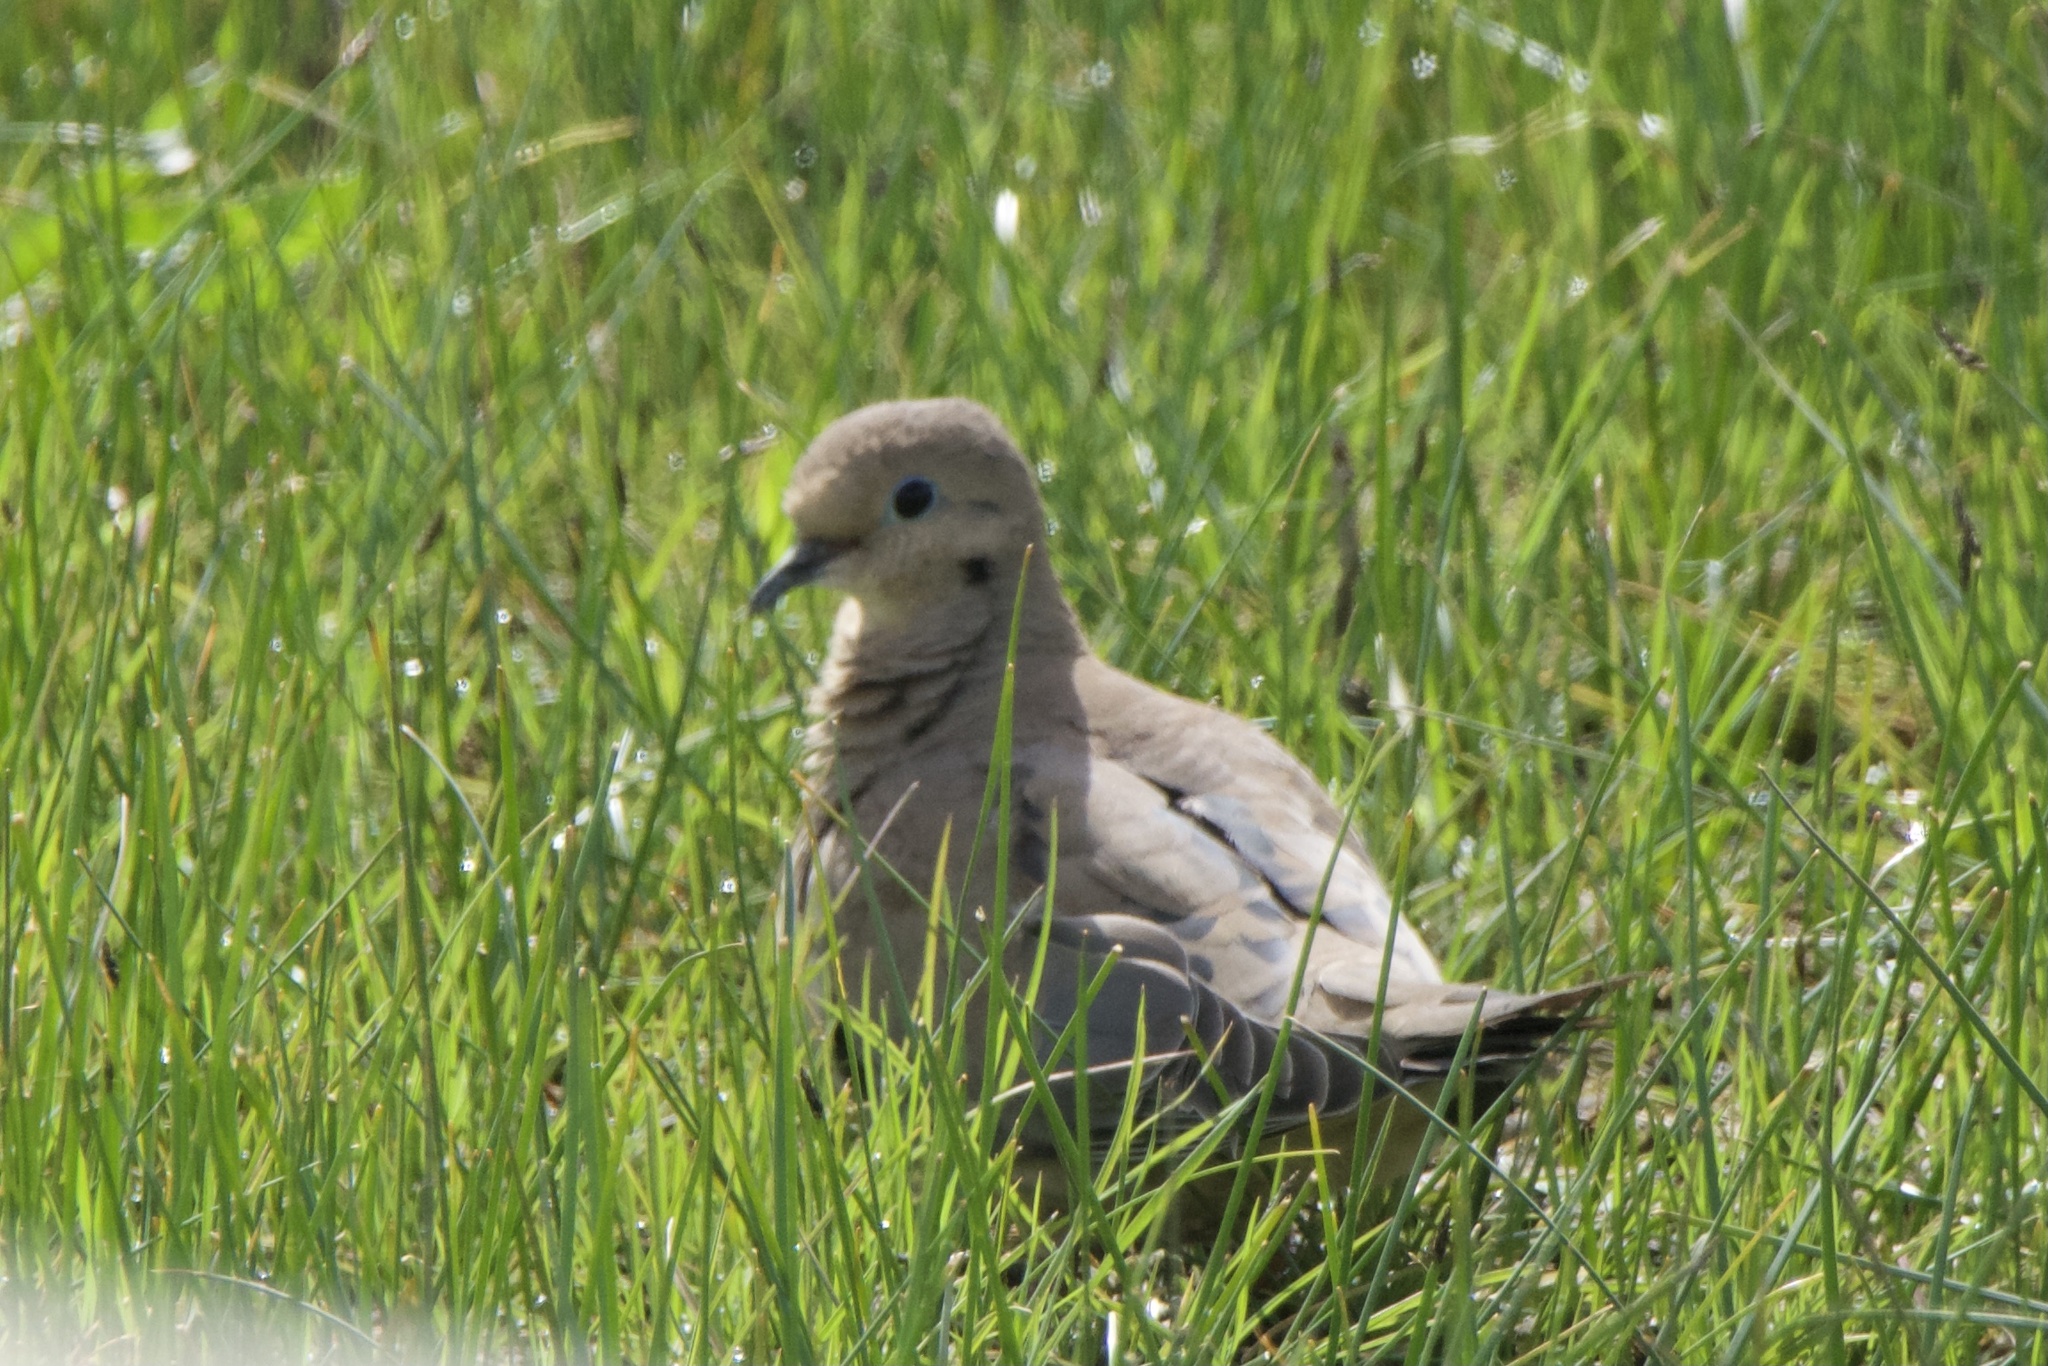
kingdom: Animalia
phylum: Chordata
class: Aves
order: Columbiformes
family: Columbidae
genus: Zenaida
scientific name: Zenaida macroura
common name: Mourning dove
